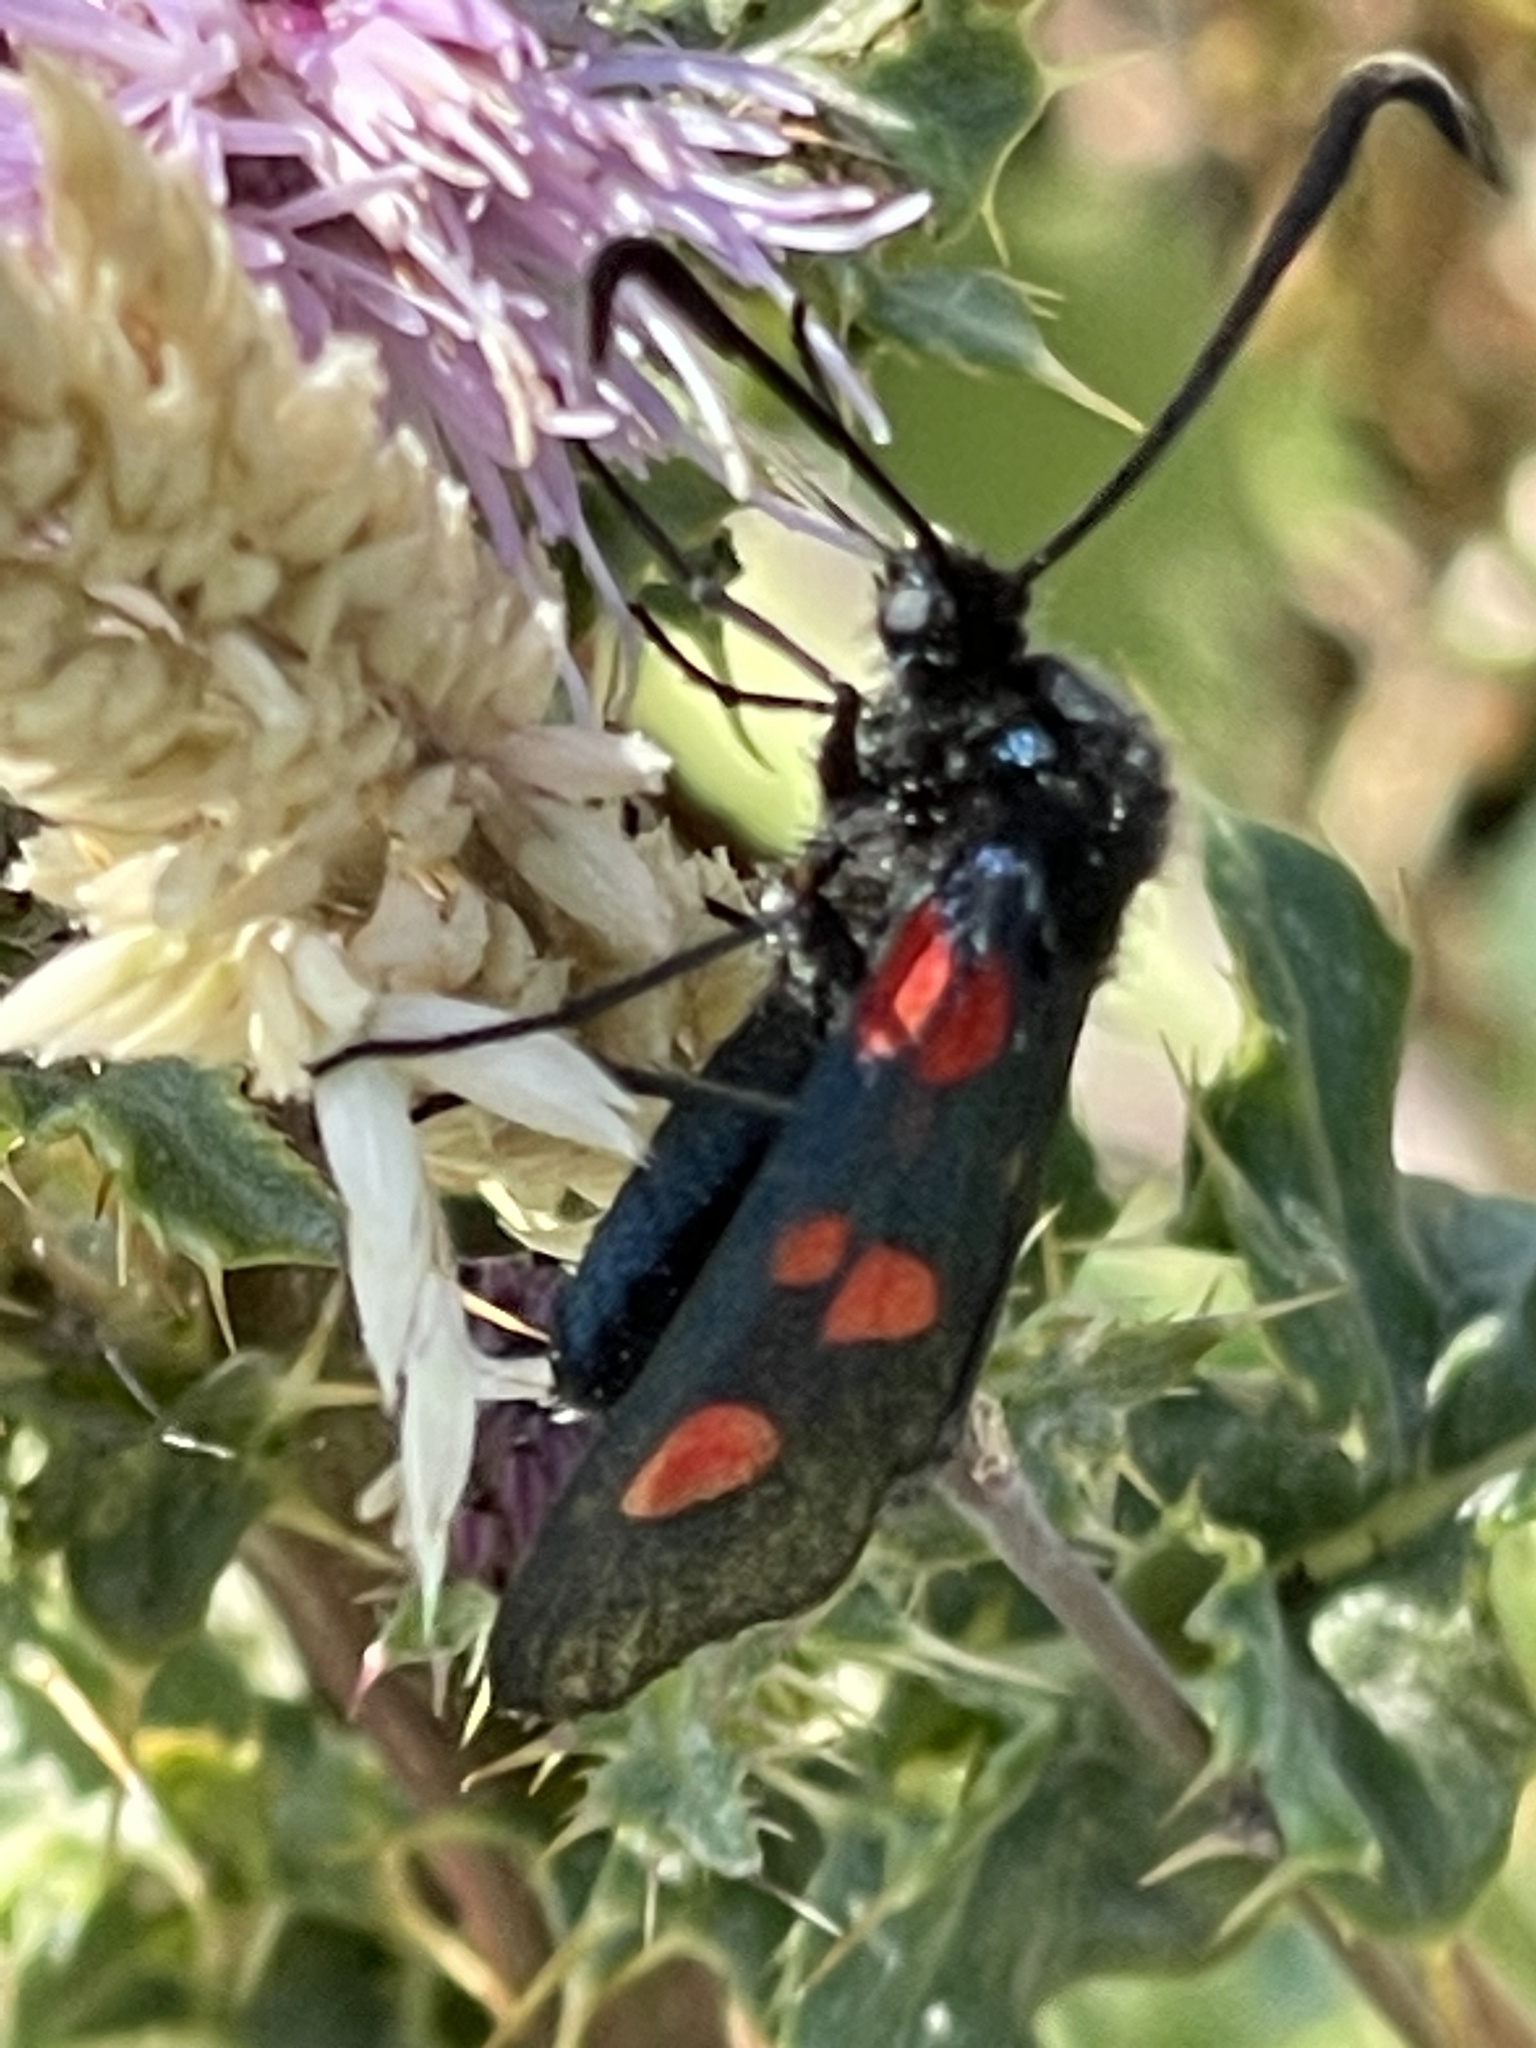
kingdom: Animalia
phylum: Arthropoda
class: Insecta
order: Lepidoptera
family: Zygaenidae
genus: Zygaena
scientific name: Zygaena
